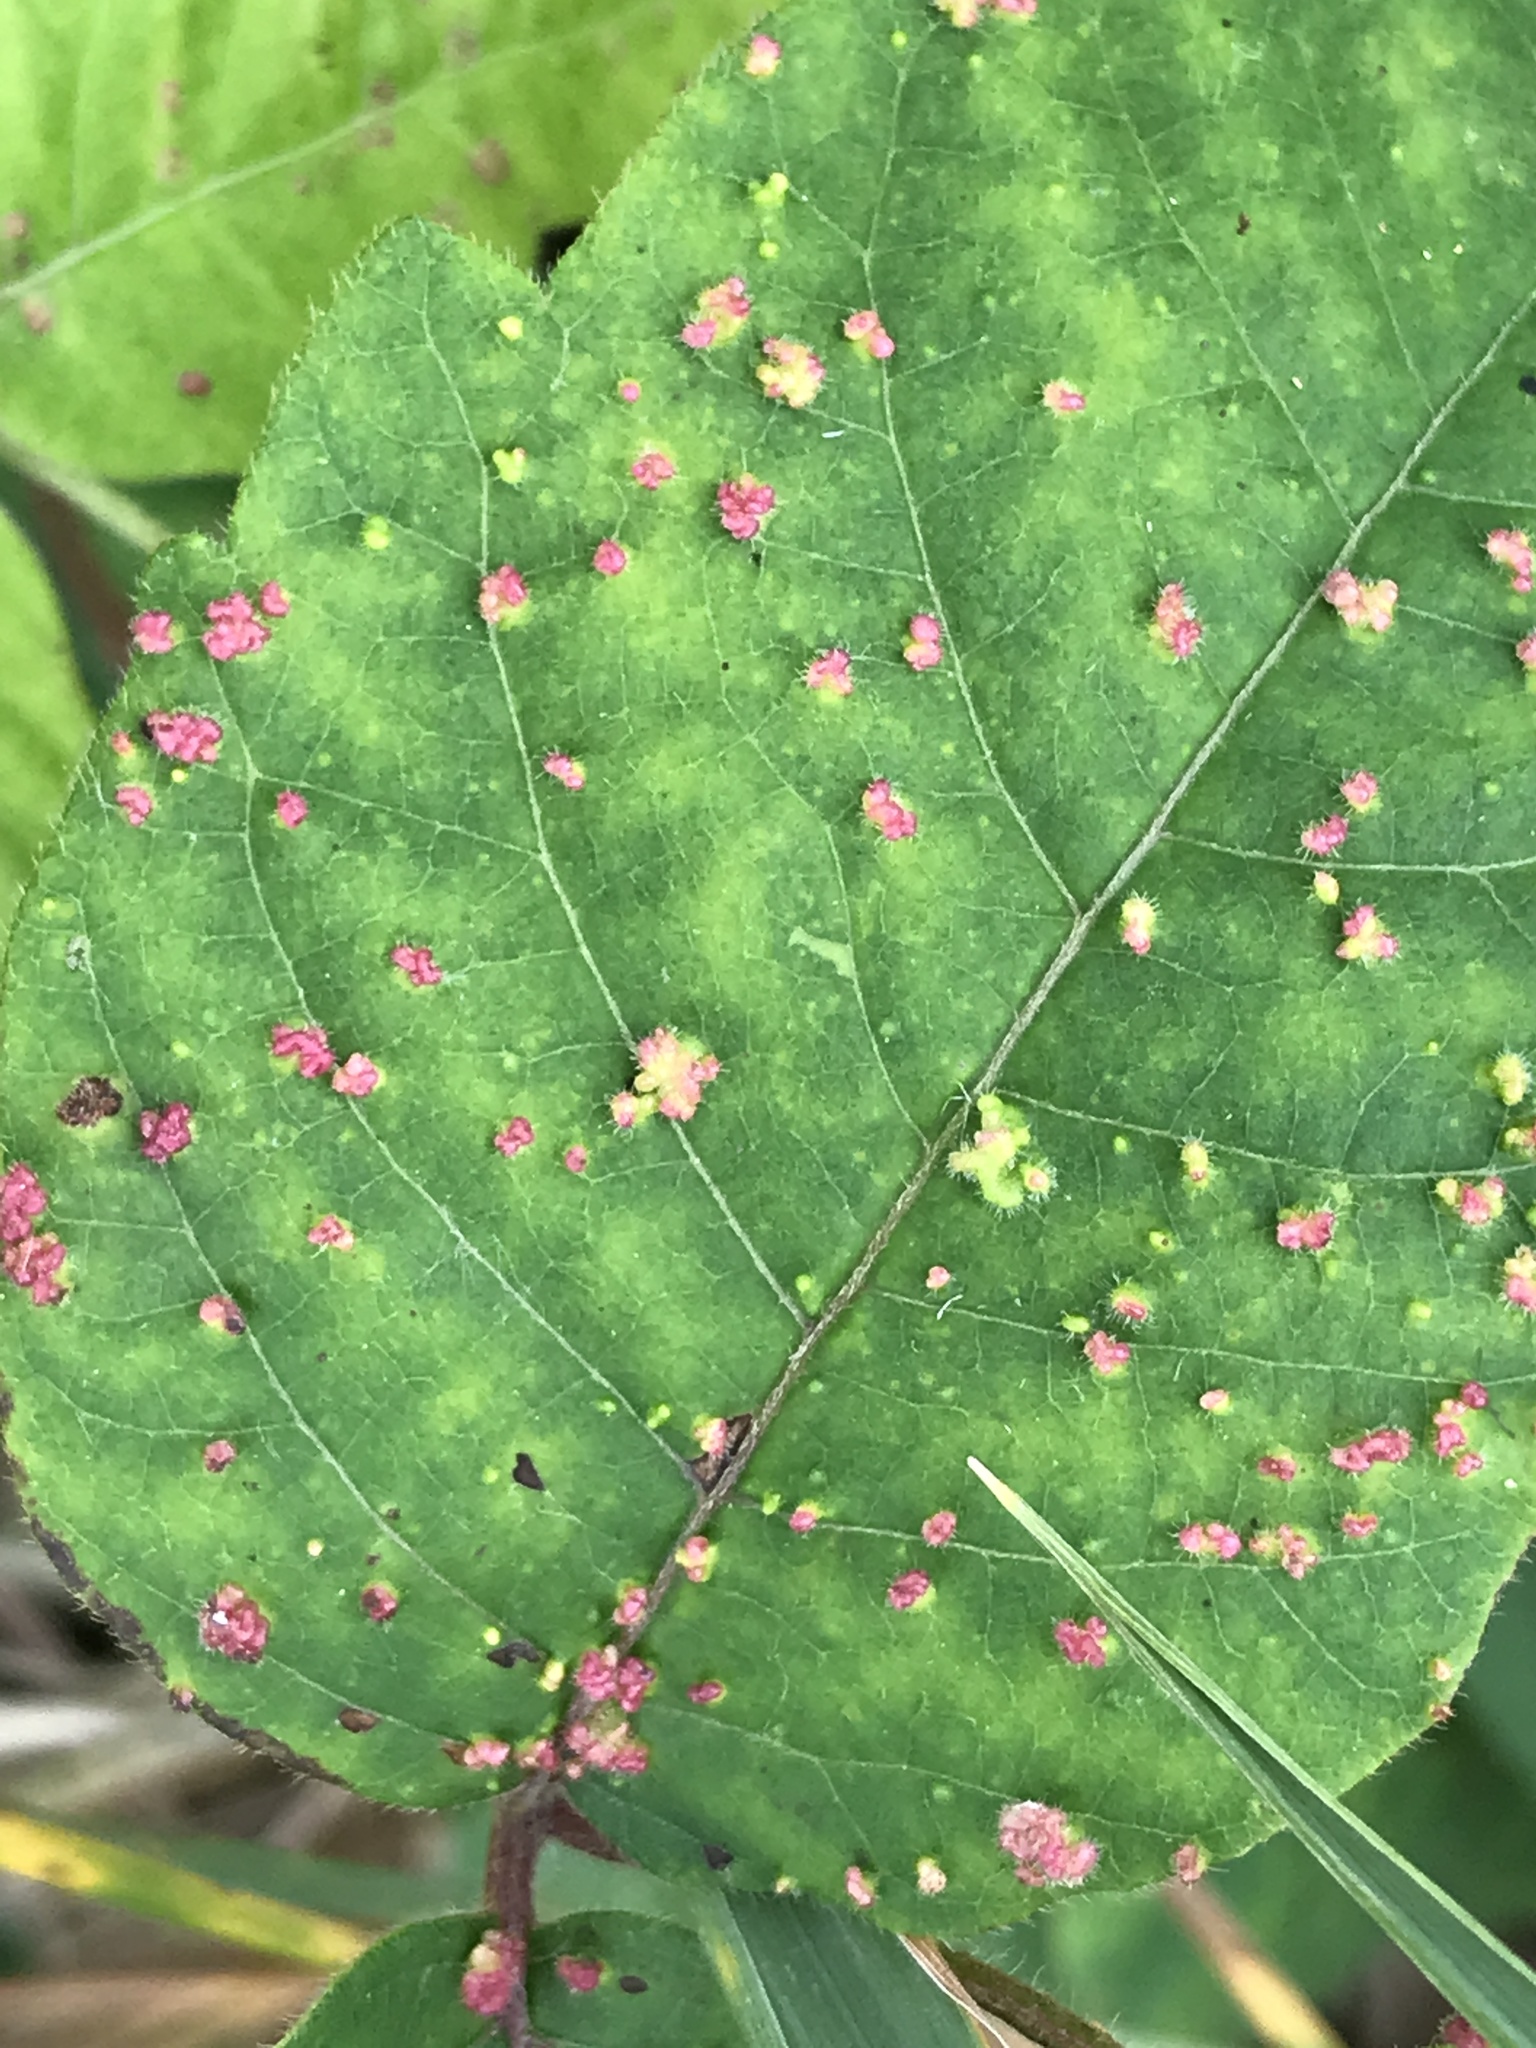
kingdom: Animalia
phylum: Arthropoda
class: Arachnida
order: Trombidiformes
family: Eriophyidae
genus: Aculops
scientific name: Aculops
